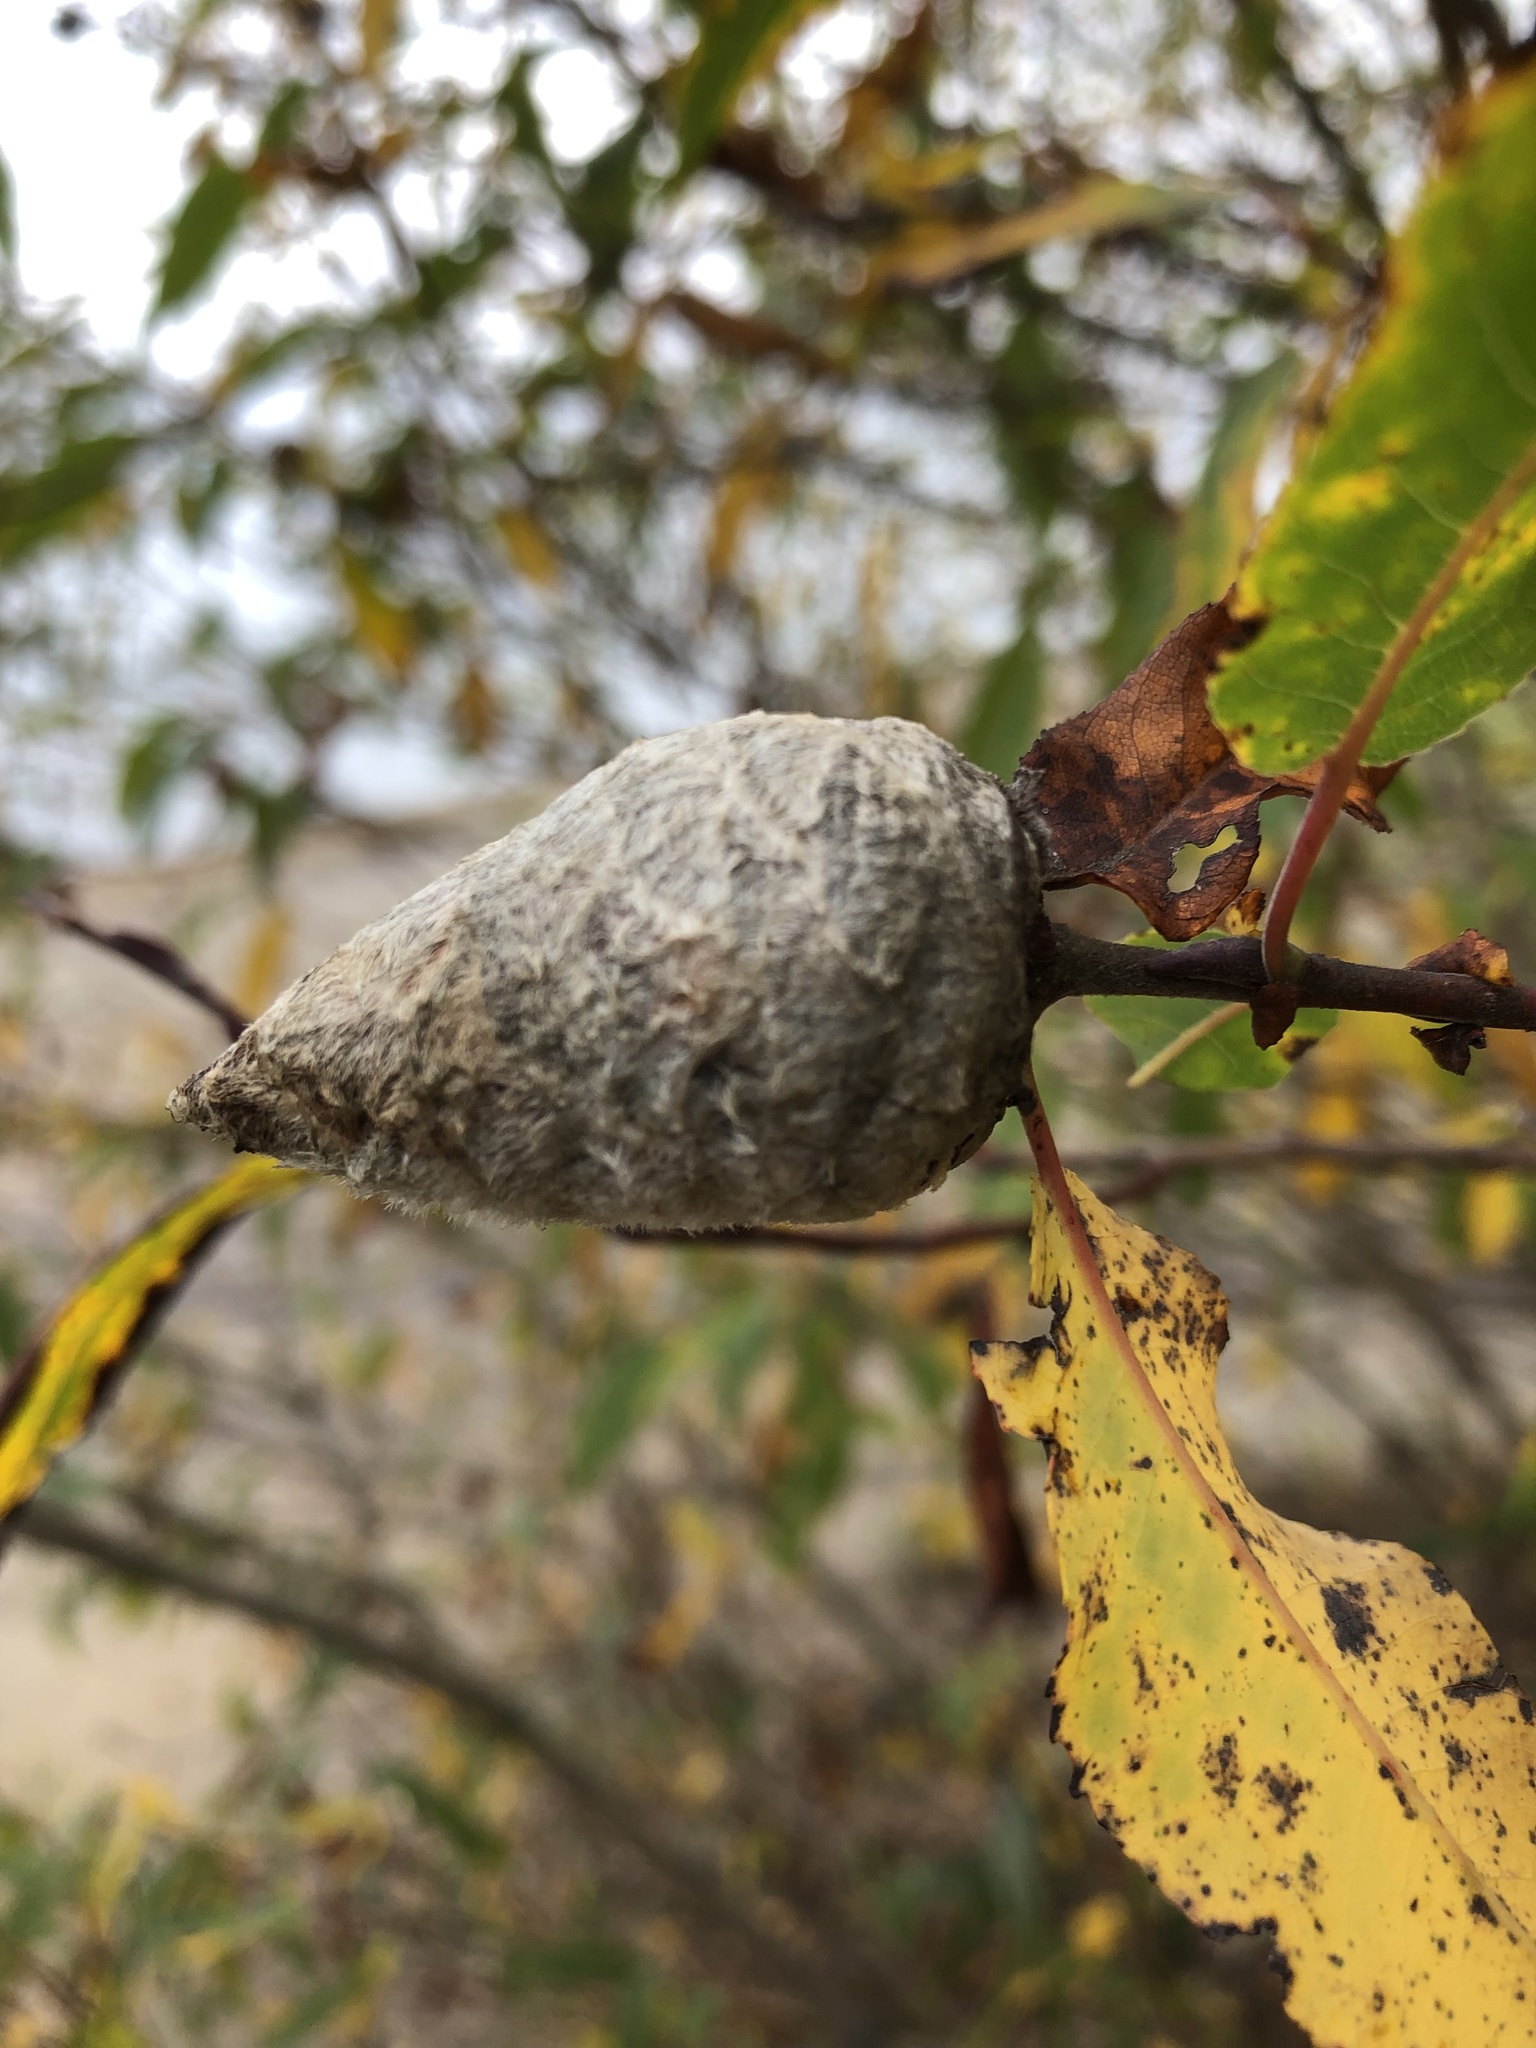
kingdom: Animalia
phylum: Arthropoda
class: Insecta
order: Diptera
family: Cecidomyiidae
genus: Rabdophaga
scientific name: Rabdophaga strobiloides
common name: Willow pinecone gall midge
